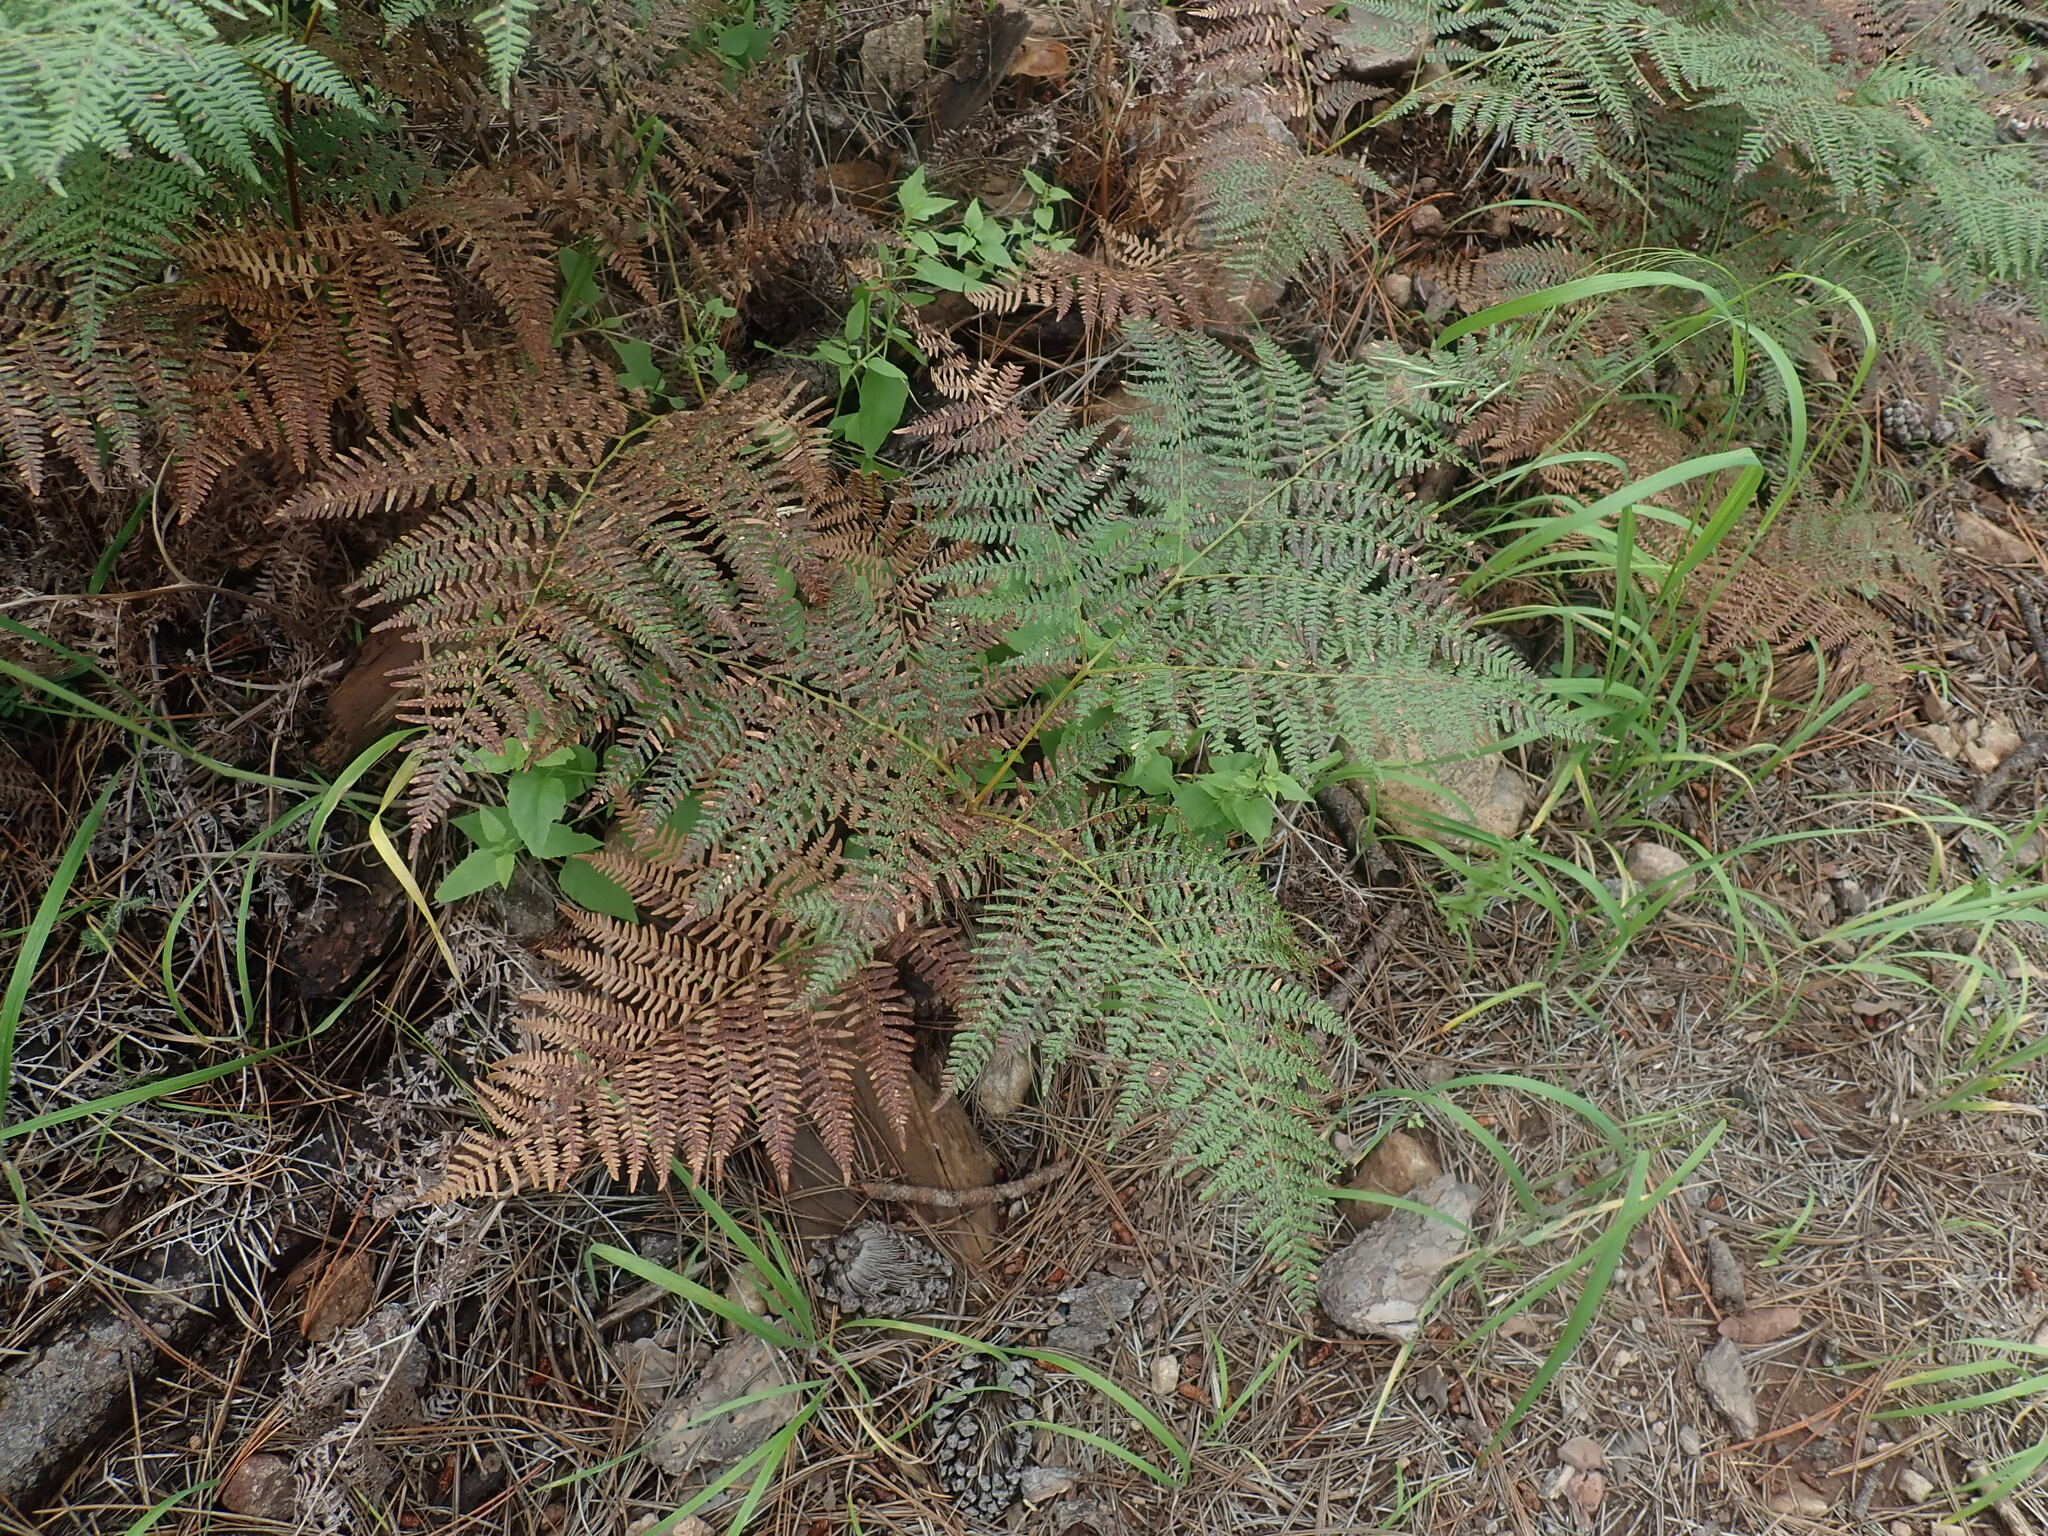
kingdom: Plantae
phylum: Tracheophyta
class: Polypodiopsida
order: Polypodiales
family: Dennstaedtiaceae
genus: Pteridium
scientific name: Pteridium aquilinum
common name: Bracken
